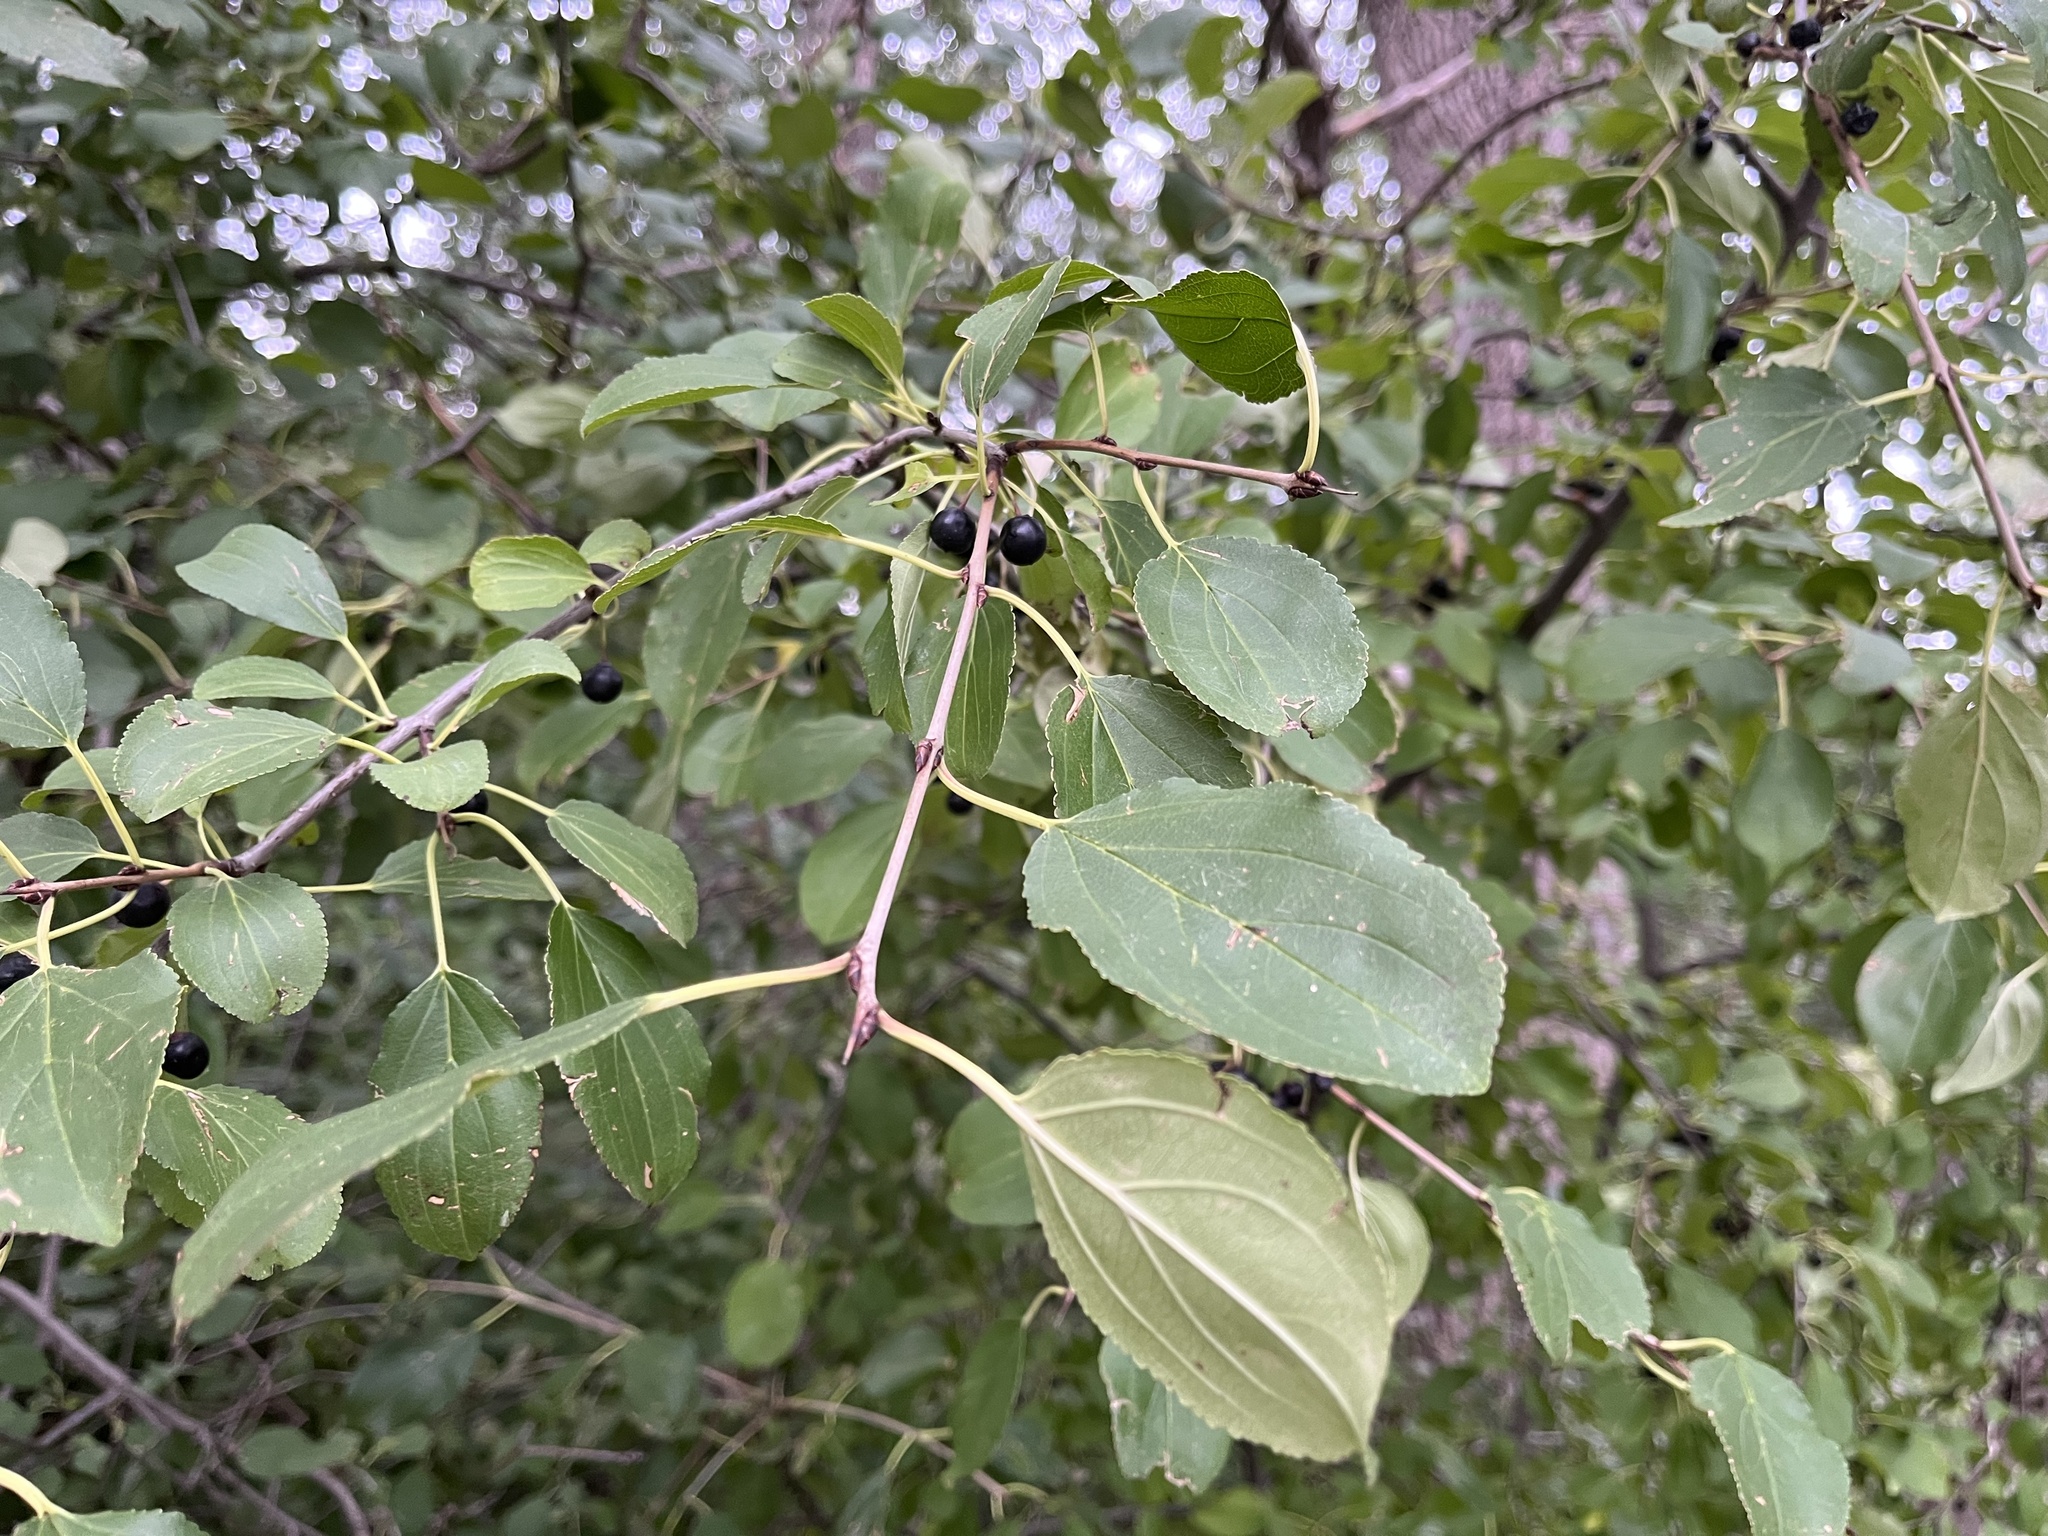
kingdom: Plantae
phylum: Tracheophyta
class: Magnoliopsida
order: Rosales
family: Rhamnaceae
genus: Rhamnus
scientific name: Rhamnus cathartica
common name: Common buckthorn
